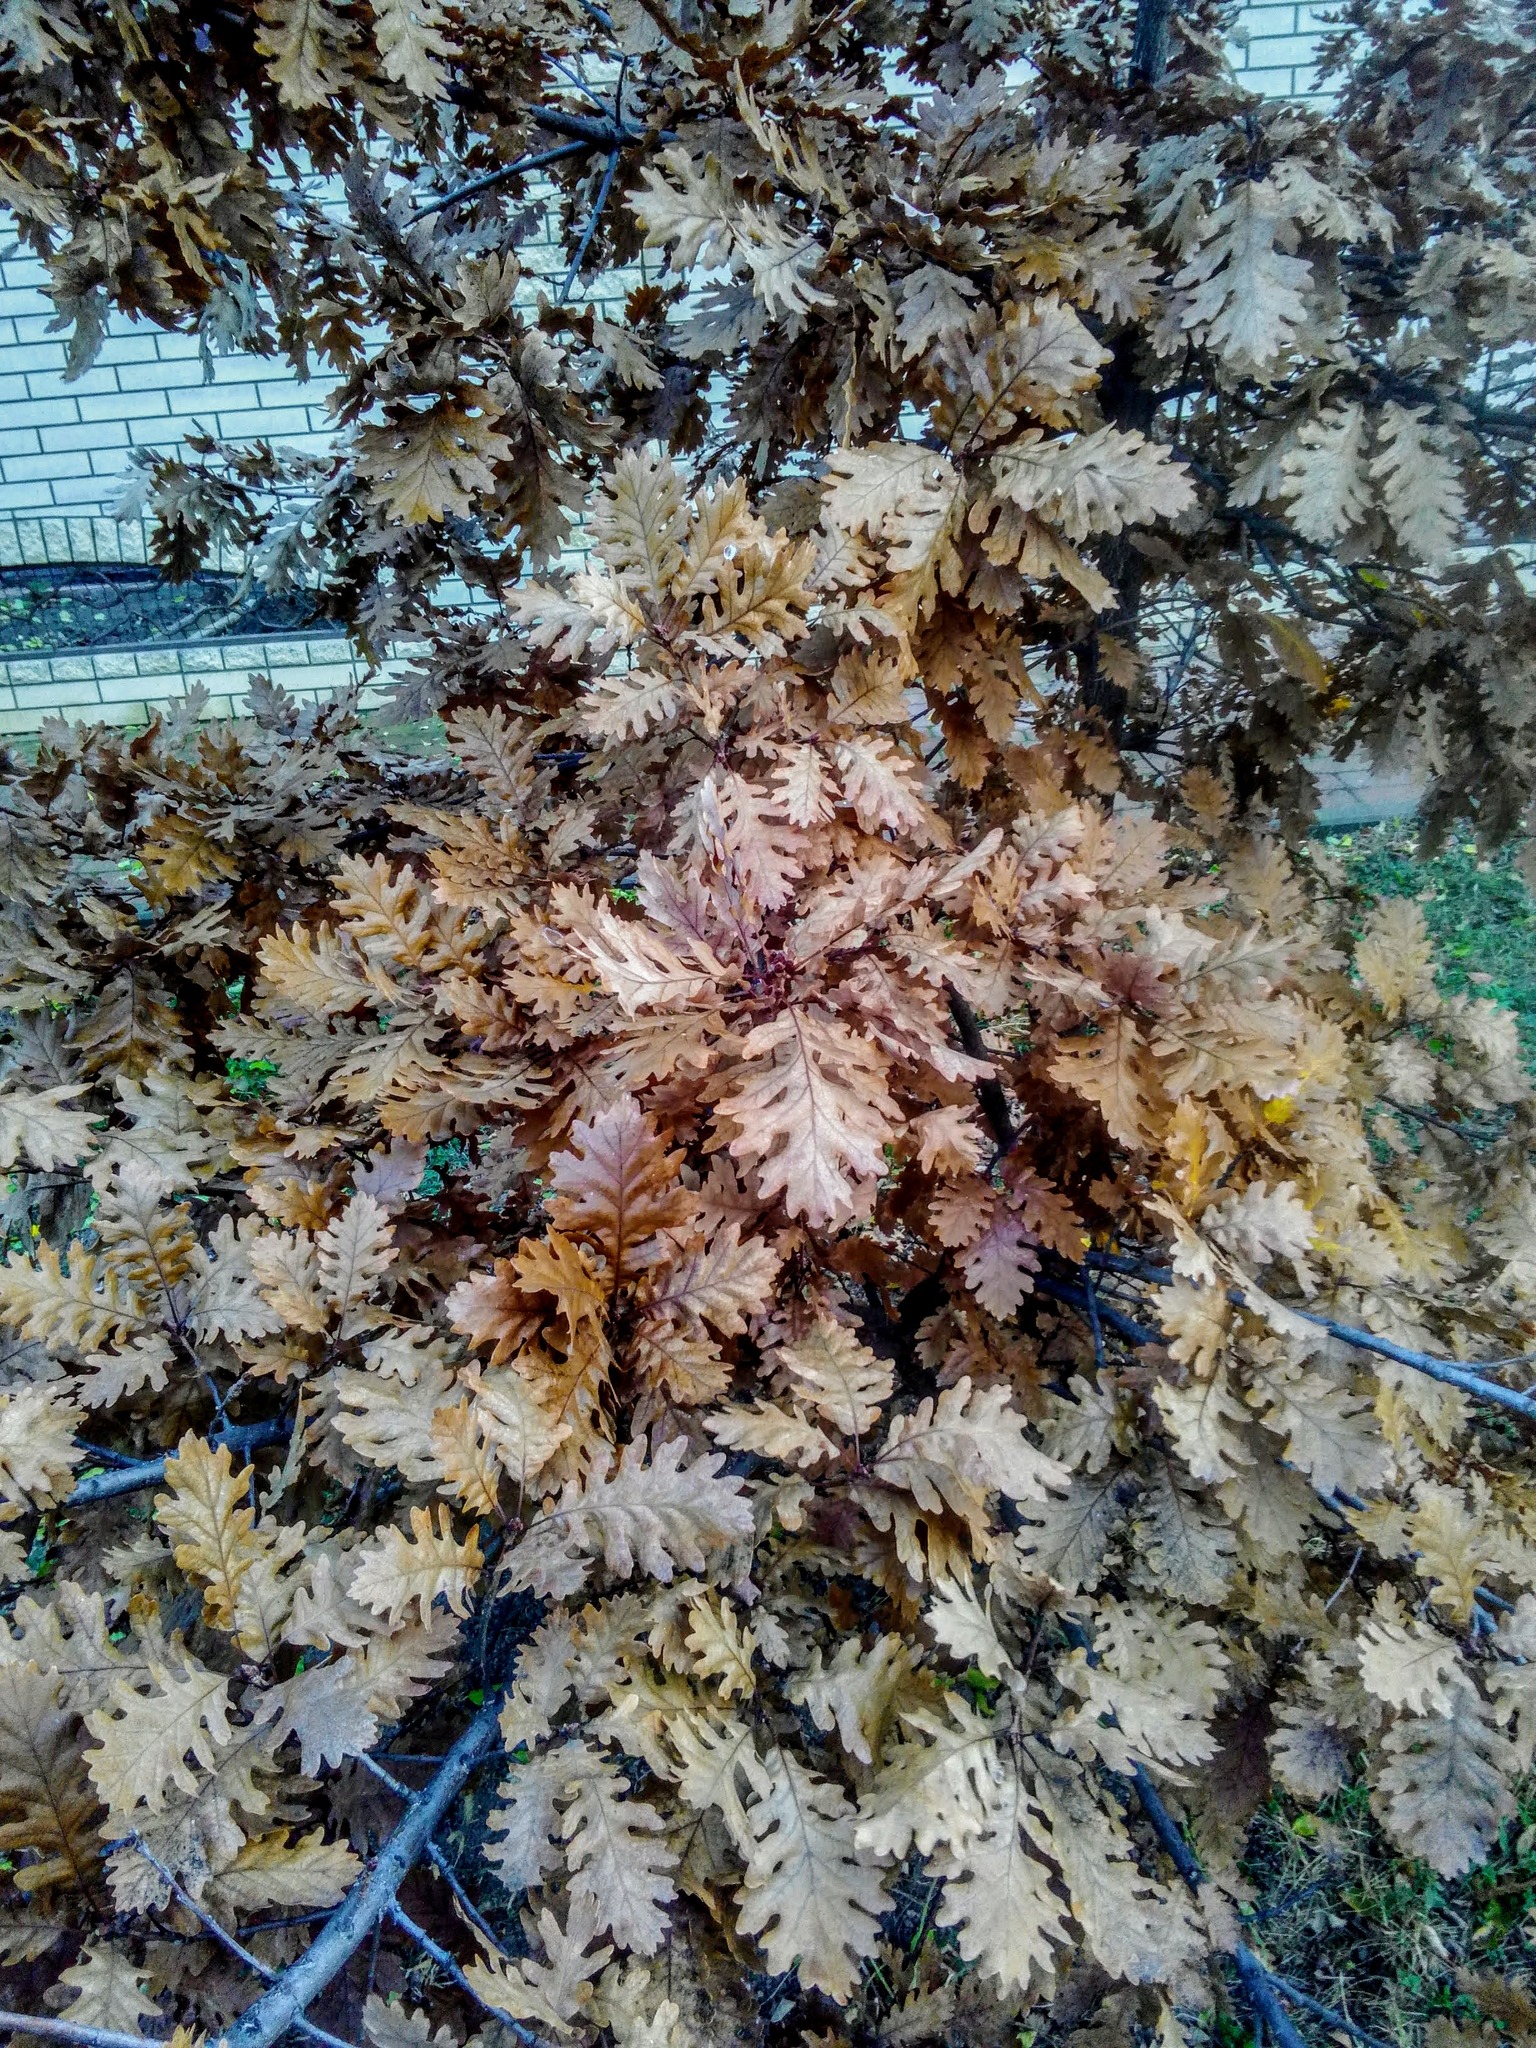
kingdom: Plantae
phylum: Tracheophyta
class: Magnoliopsida
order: Fagales
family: Fagaceae
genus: Quercus
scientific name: Quercus petraea
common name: Sessile oak
